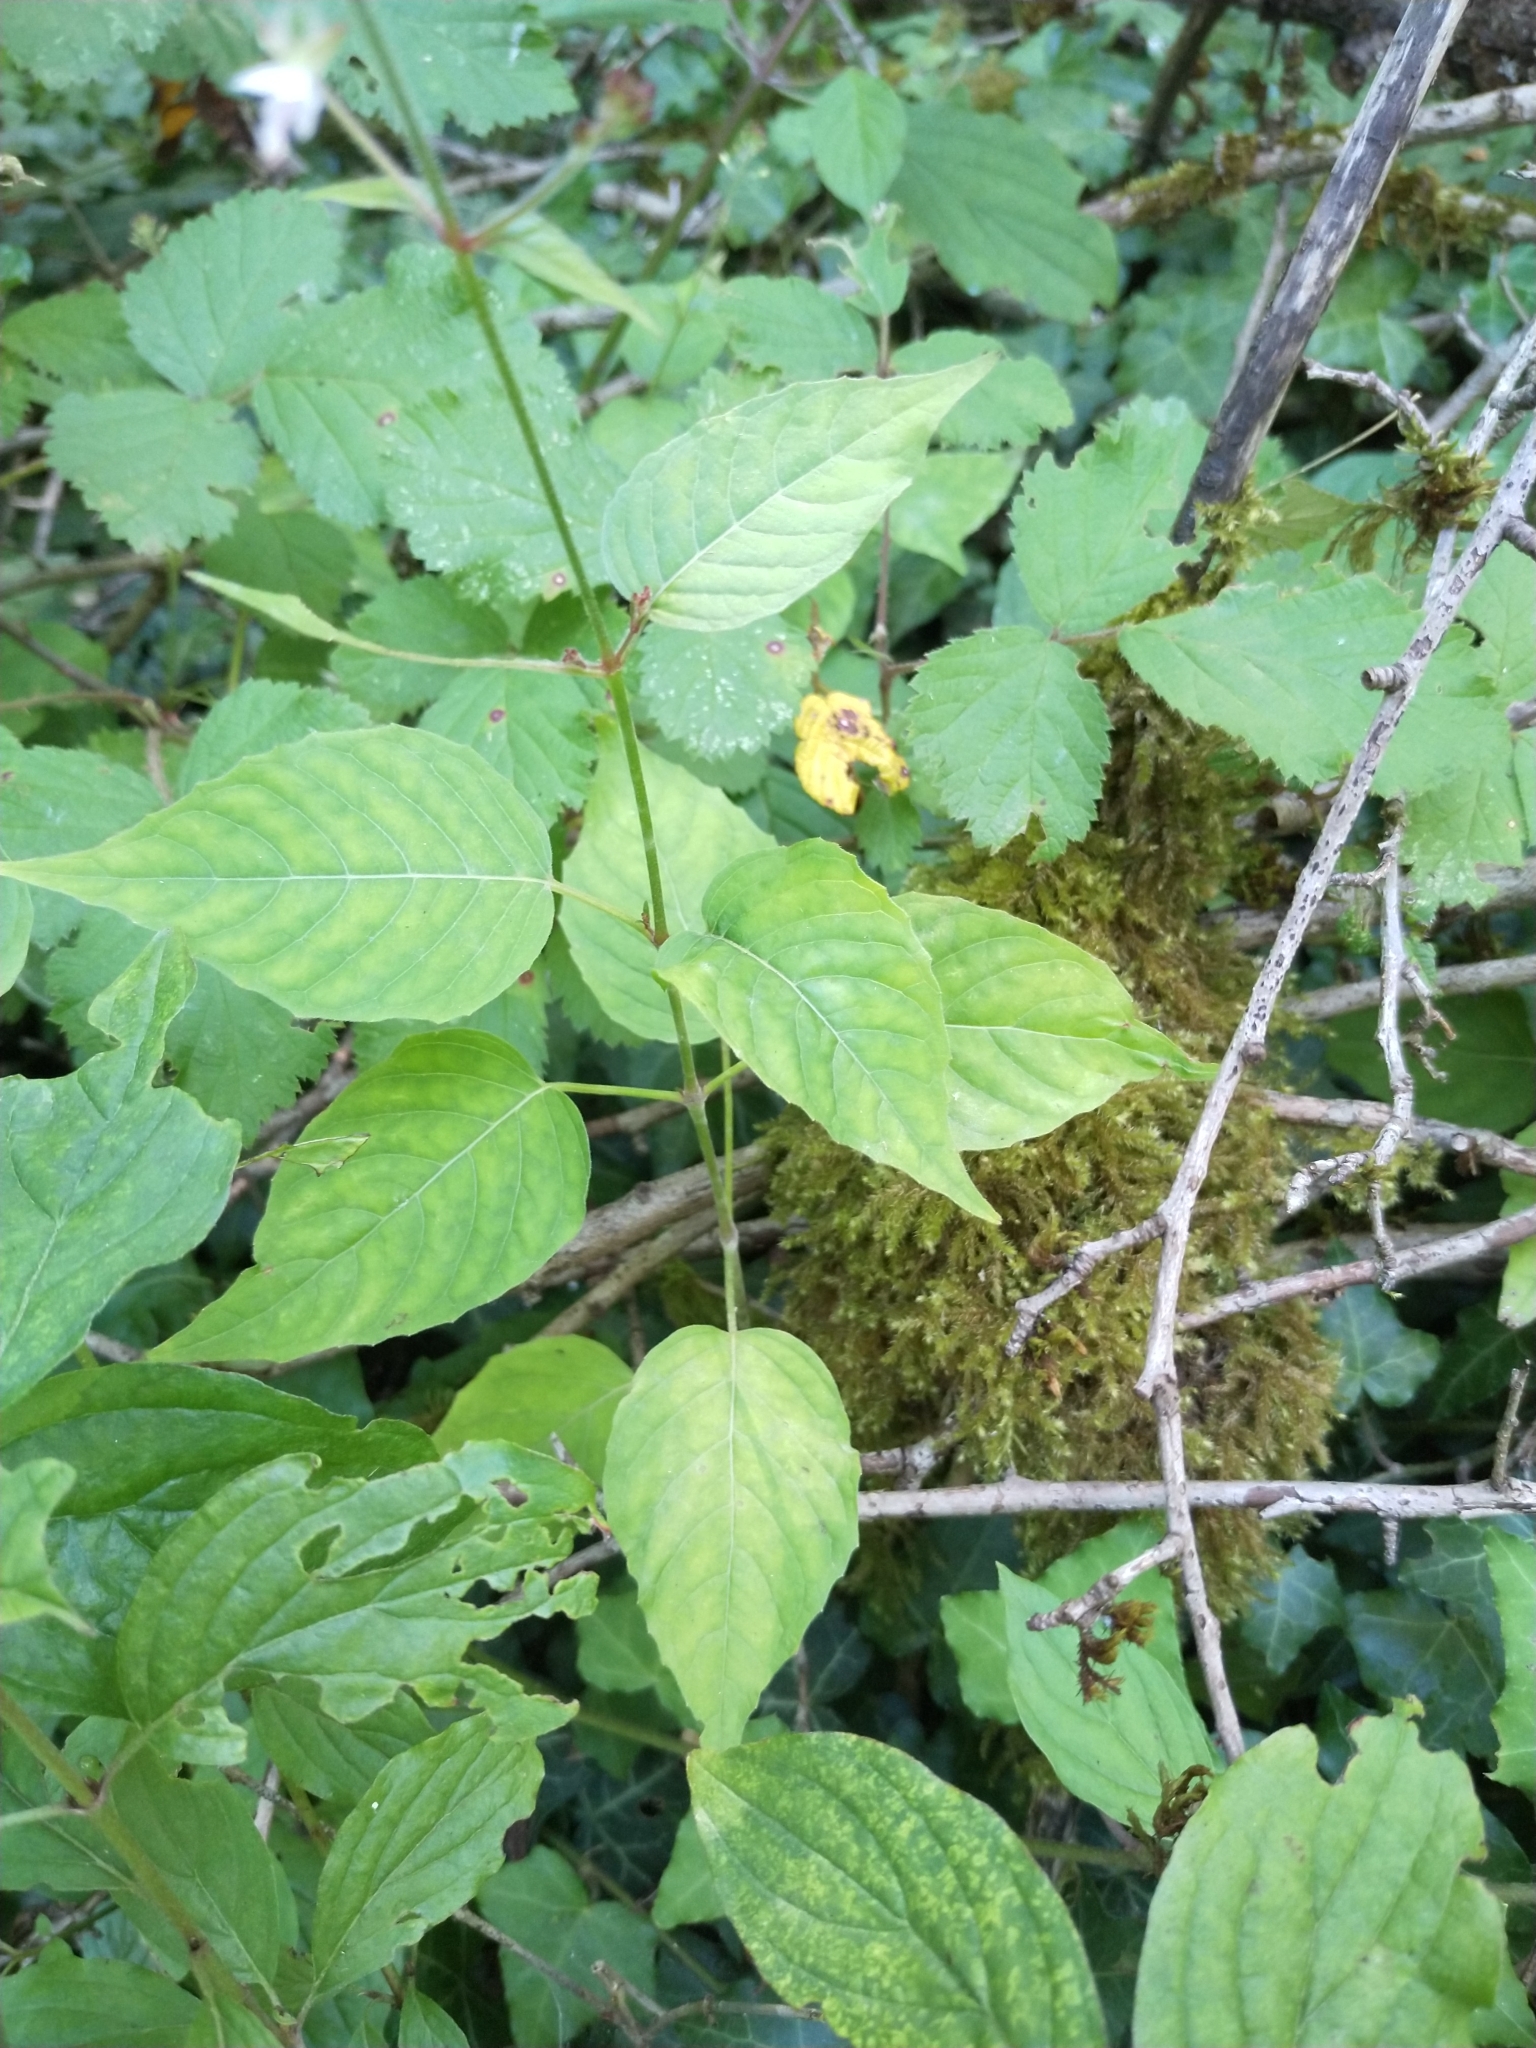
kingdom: Plantae
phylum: Tracheophyta
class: Magnoliopsida
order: Myrtales
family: Onagraceae
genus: Circaea
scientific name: Circaea lutetiana
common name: Enchanter's-nightshade
